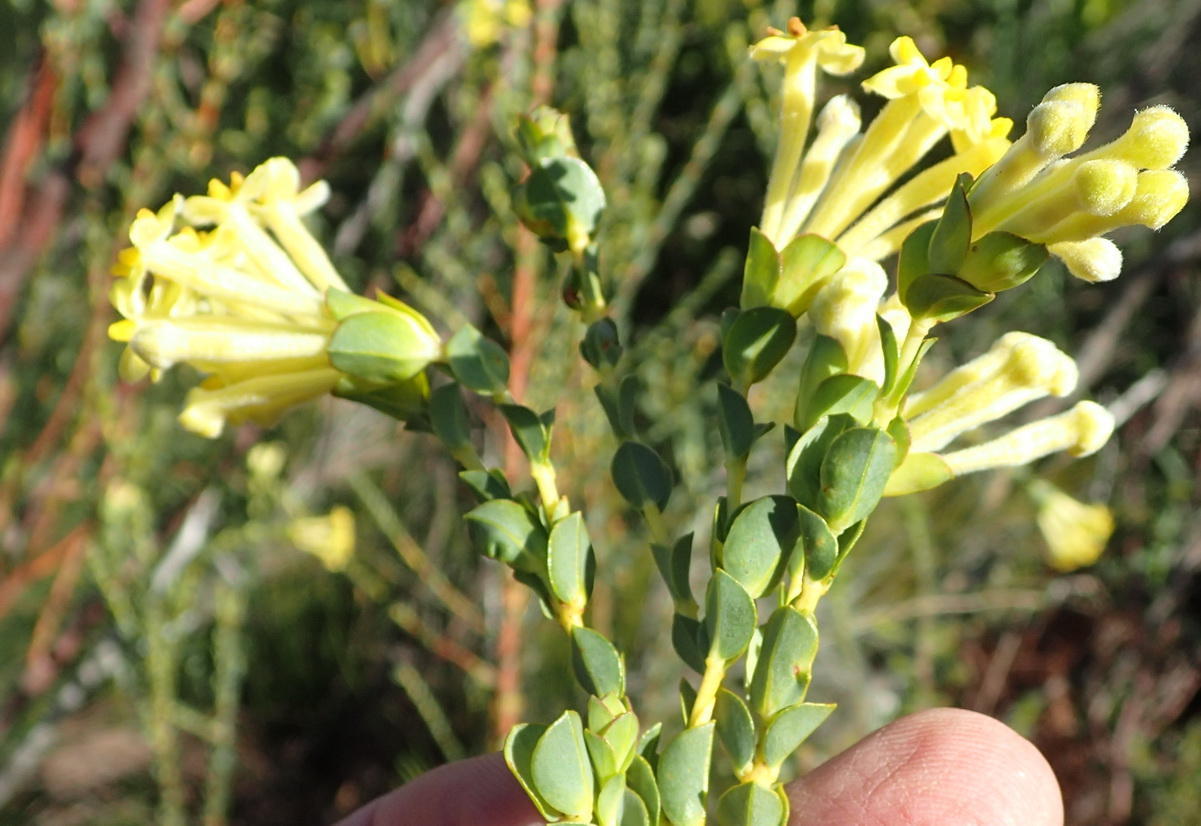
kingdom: Plantae
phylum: Tracheophyta
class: Magnoliopsida
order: Malvales
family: Thymelaeaceae
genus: Gnidia
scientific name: Gnidia oppositifolia
